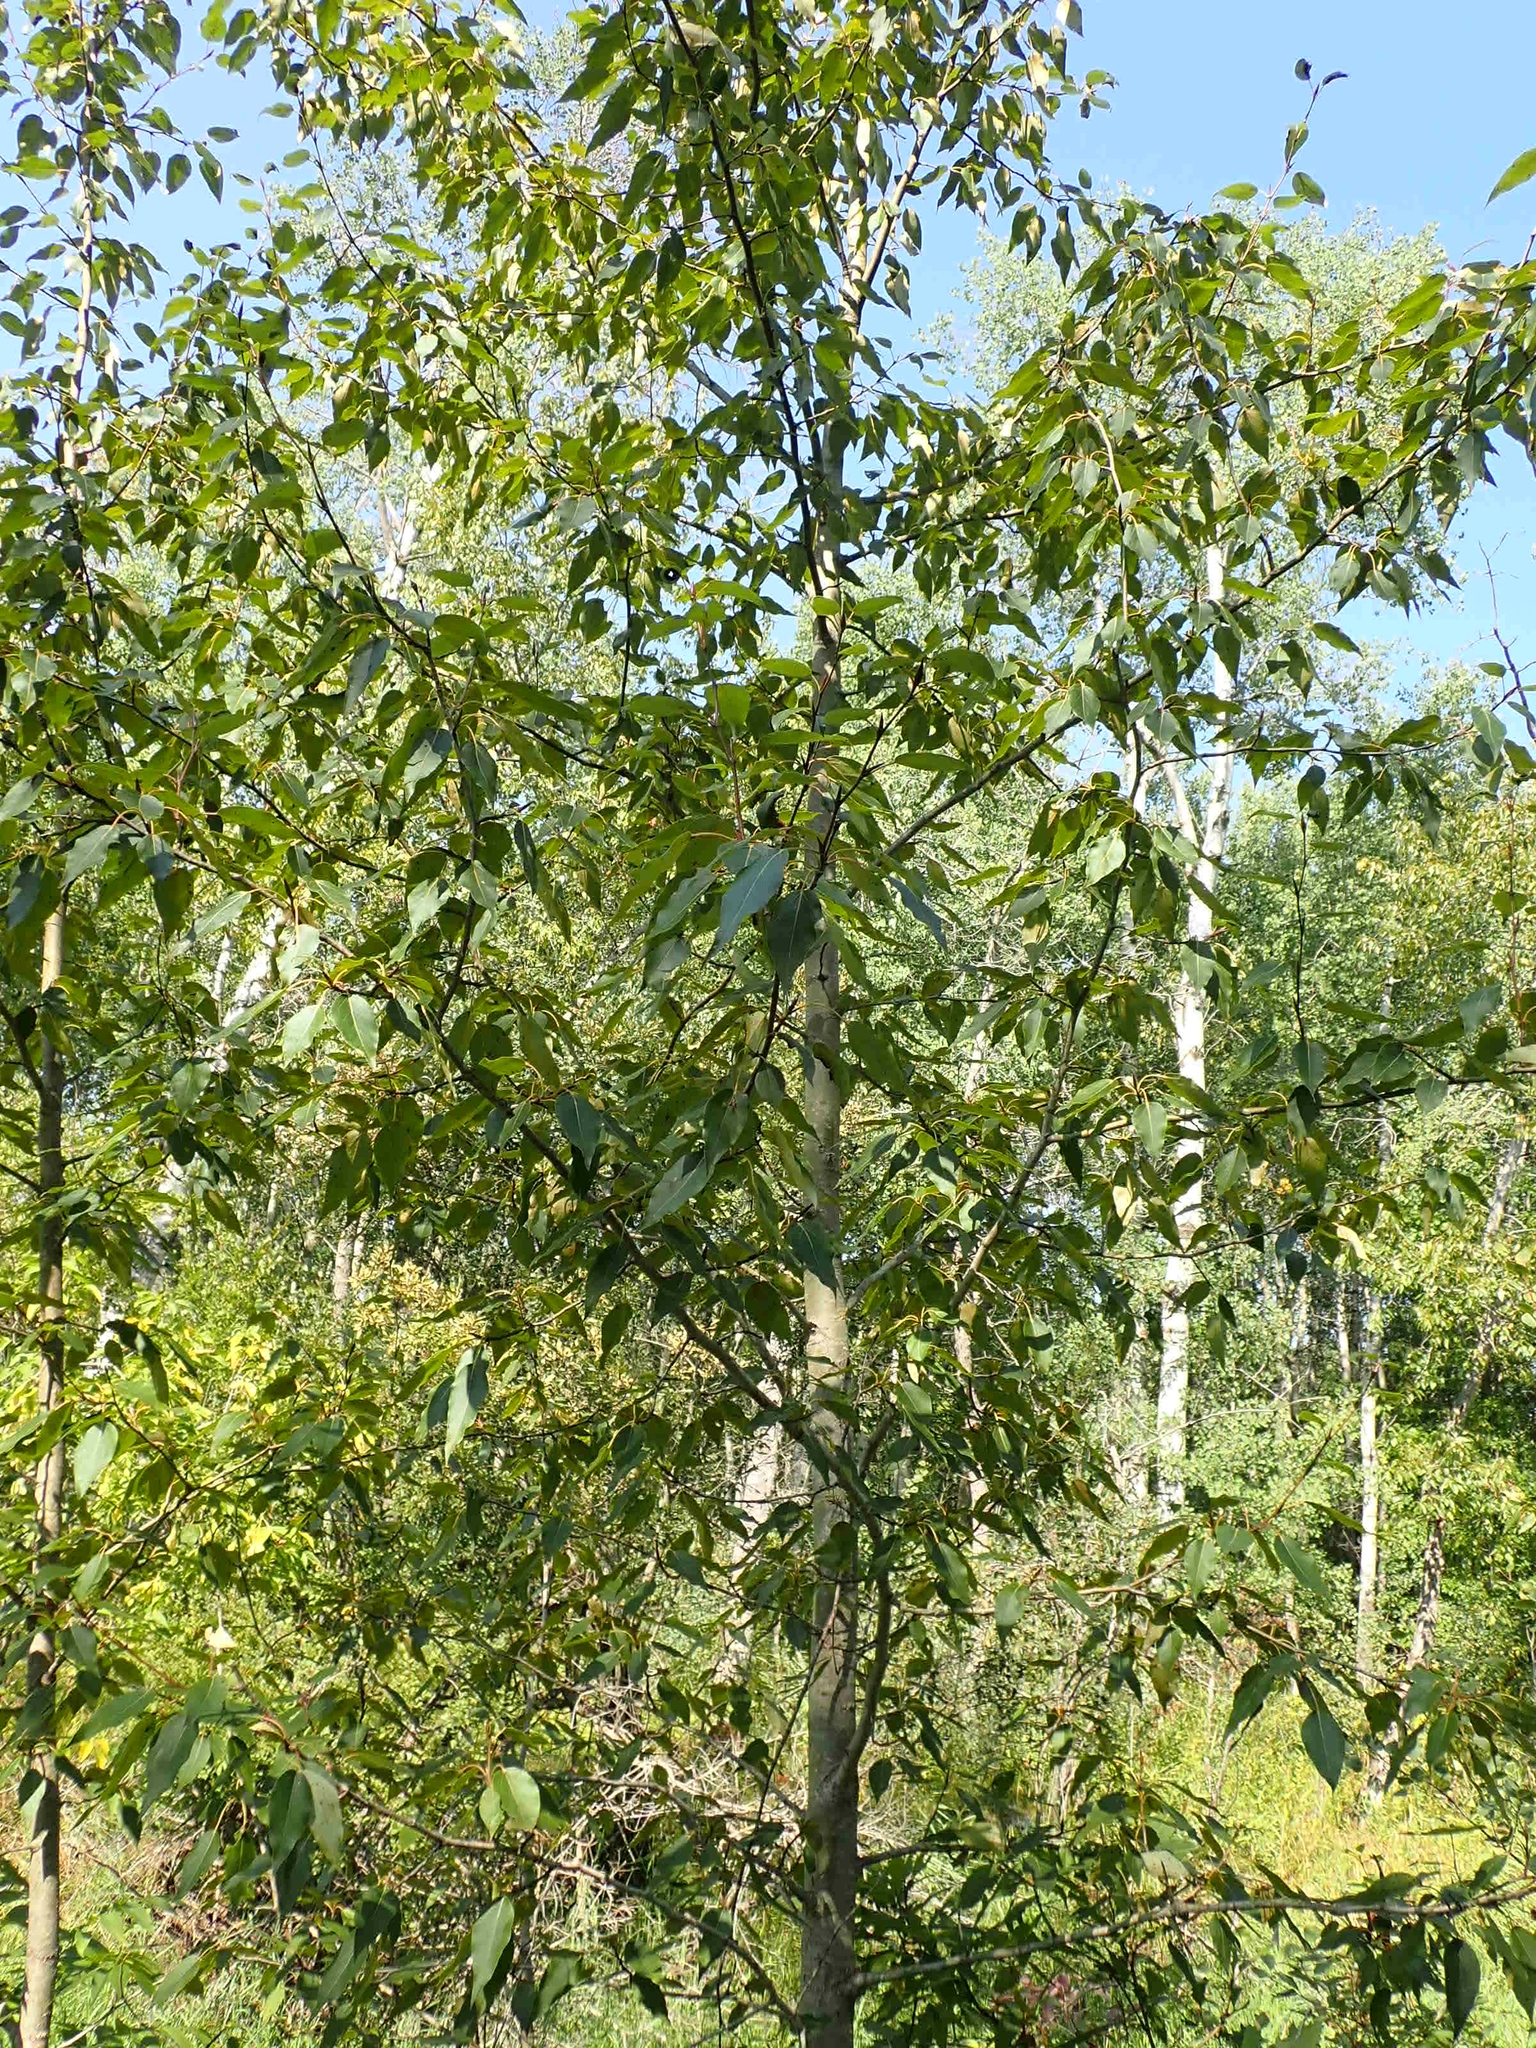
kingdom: Plantae
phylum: Tracheophyta
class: Magnoliopsida
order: Malpighiales
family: Salicaceae
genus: Populus
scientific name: Populus balsamifera
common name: Balsam poplar
